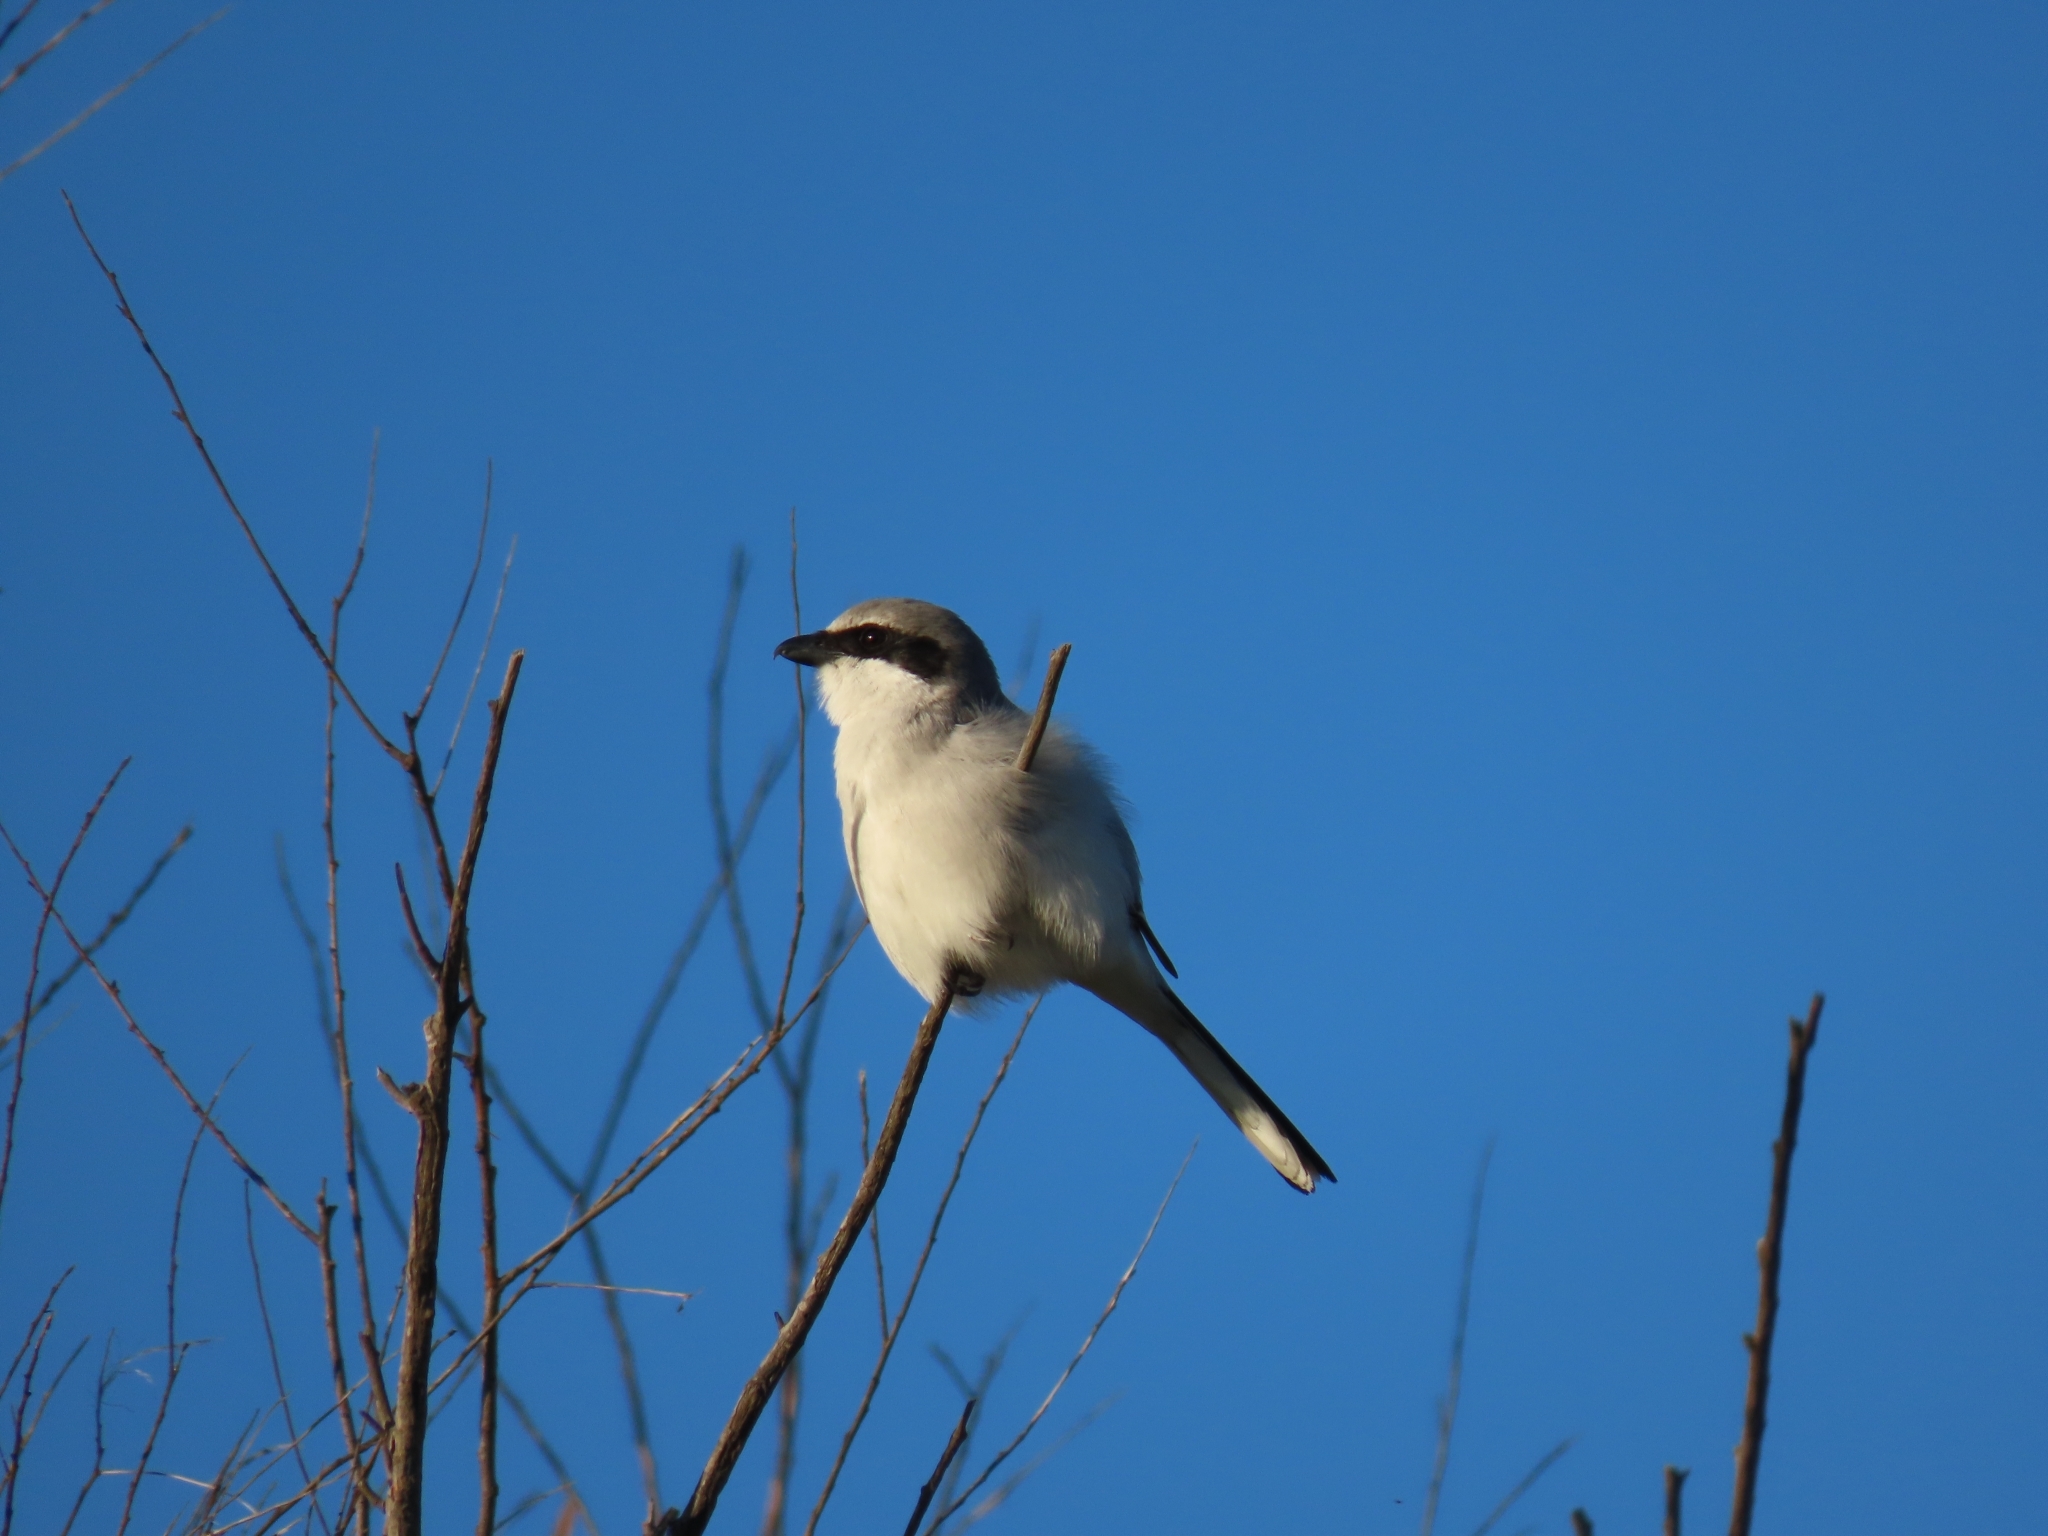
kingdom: Animalia
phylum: Chordata
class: Aves
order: Passeriformes
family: Laniidae
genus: Lanius
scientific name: Lanius ludovicianus
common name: Loggerhead shrike
